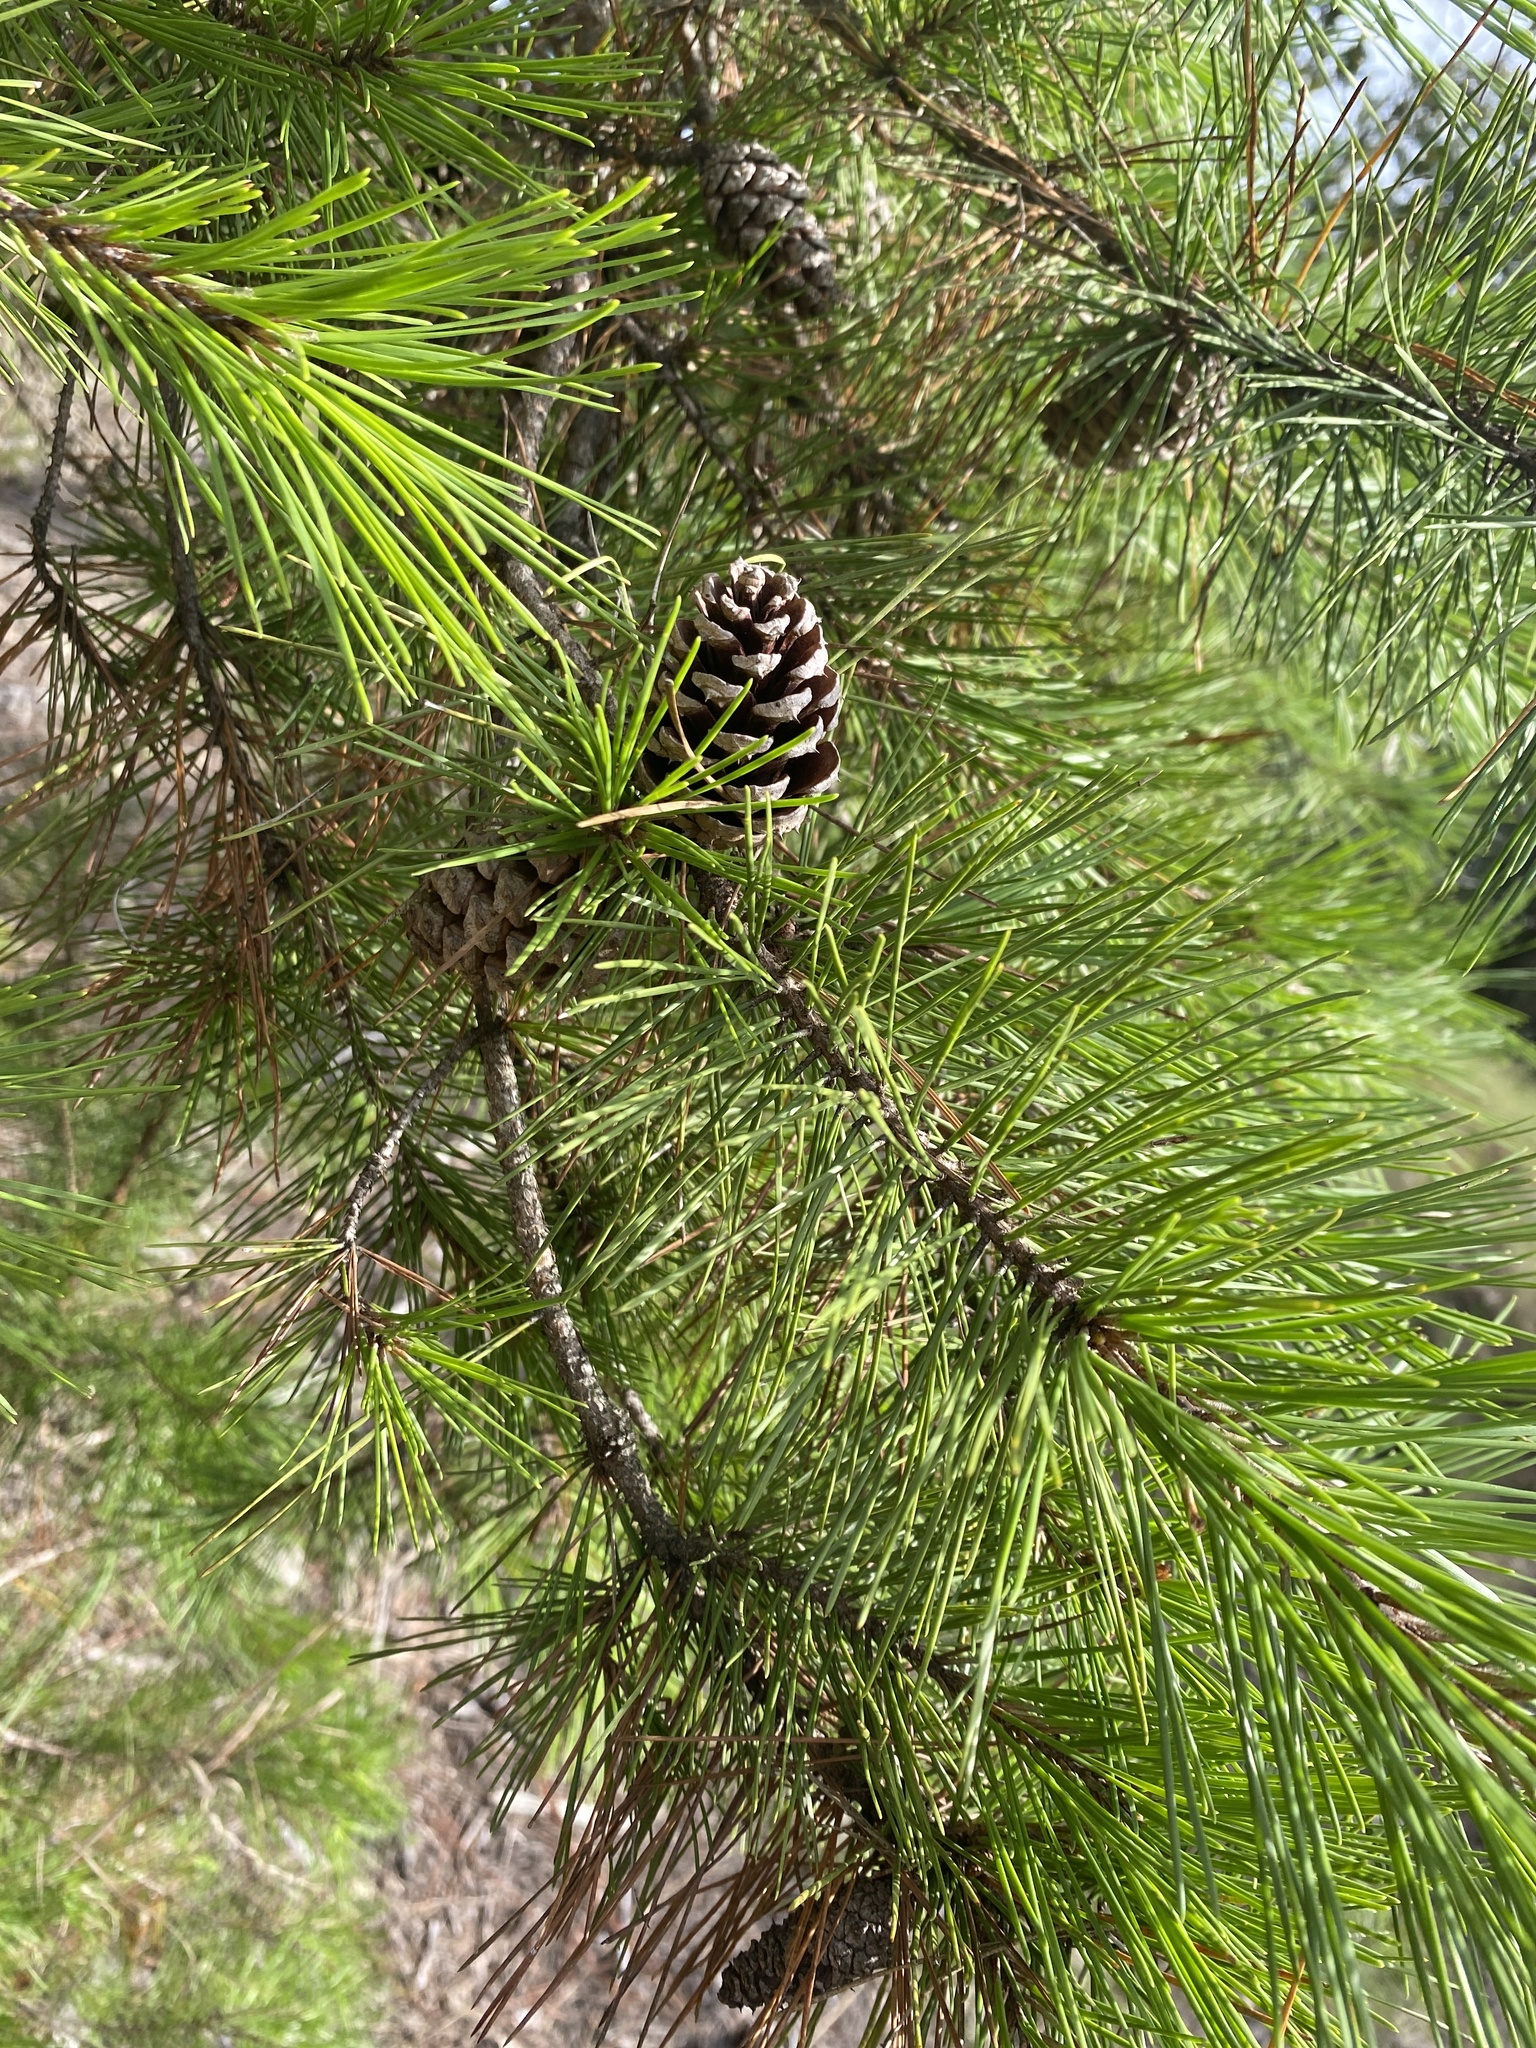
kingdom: Plantae
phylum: Tracheophyta
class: Pinopsida
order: Pinales
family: Pinaceae
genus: Pinus
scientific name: Pinus echinata
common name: Shortleaf pine
